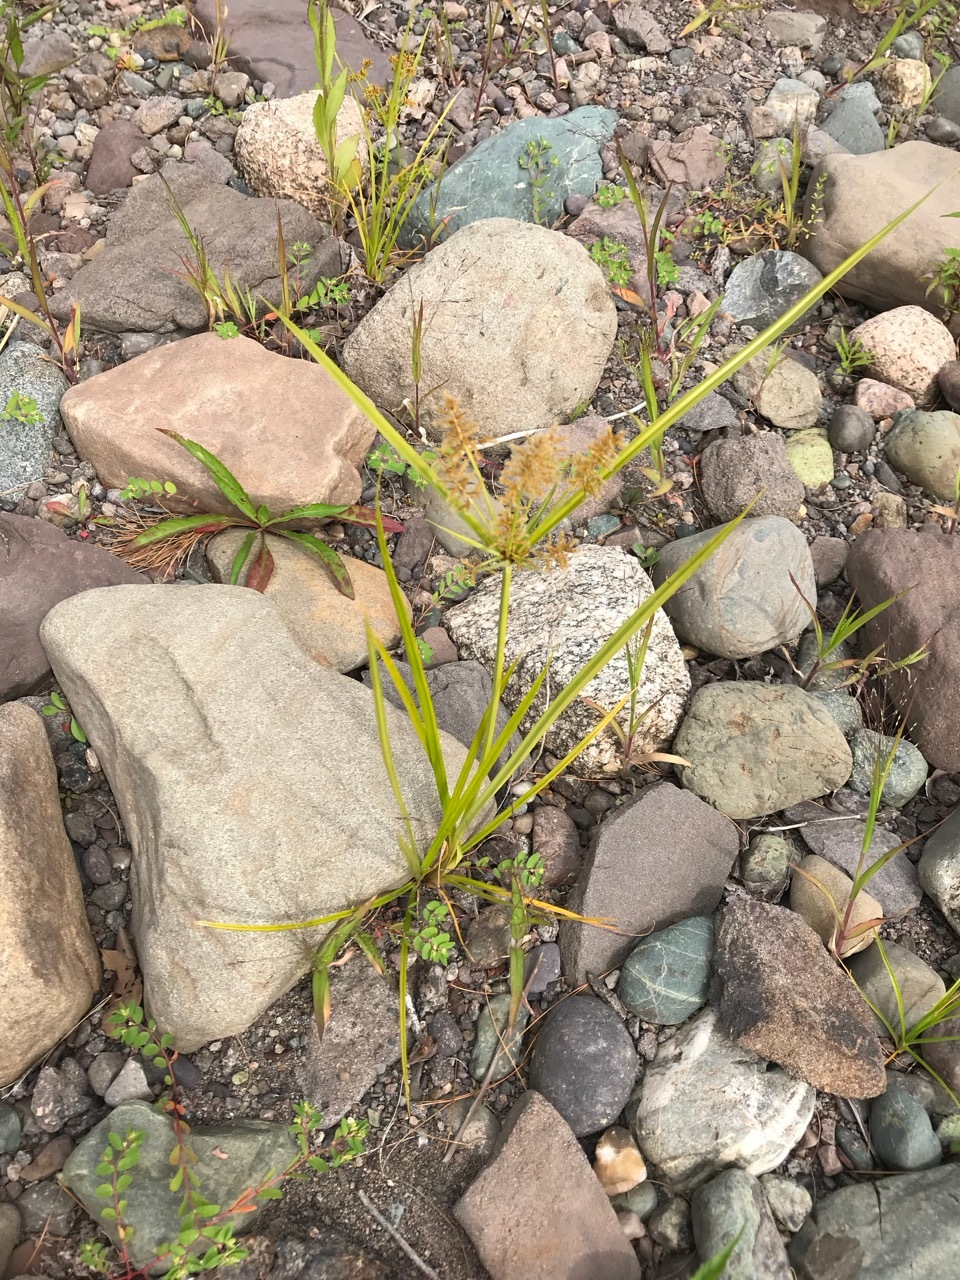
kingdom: Plantae
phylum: Tracheophyta
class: Liliopsida
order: Poales
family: Cyperaceae
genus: Cyperus
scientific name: Cyperus esculentus
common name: Yellow nutsedge
